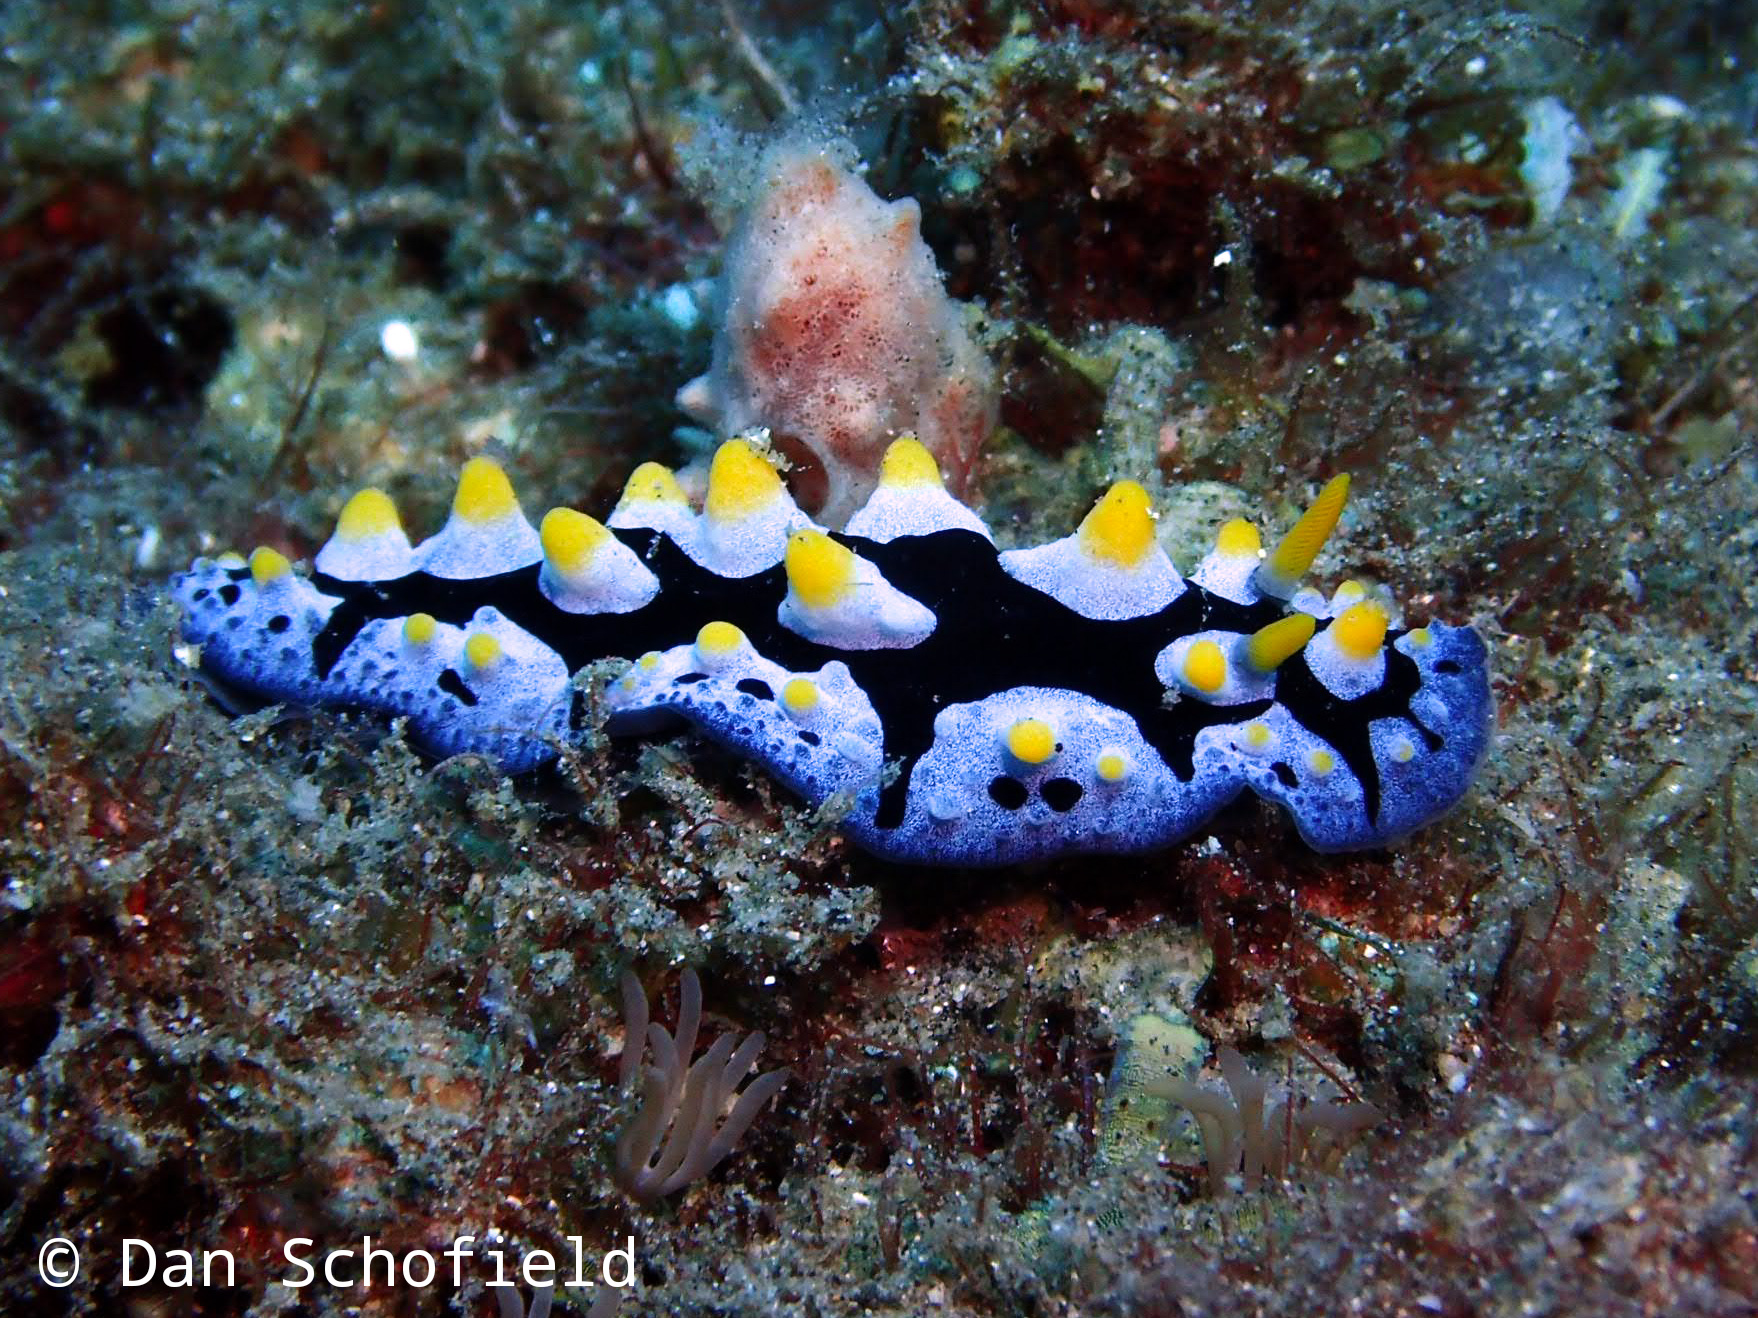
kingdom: Animalia
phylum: Mollusca
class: Gastropoda
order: Nudibranchia
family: Phyllidiidae
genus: Phyllidia
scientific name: Phyllidia picta
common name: Black-rayed phyllidia
